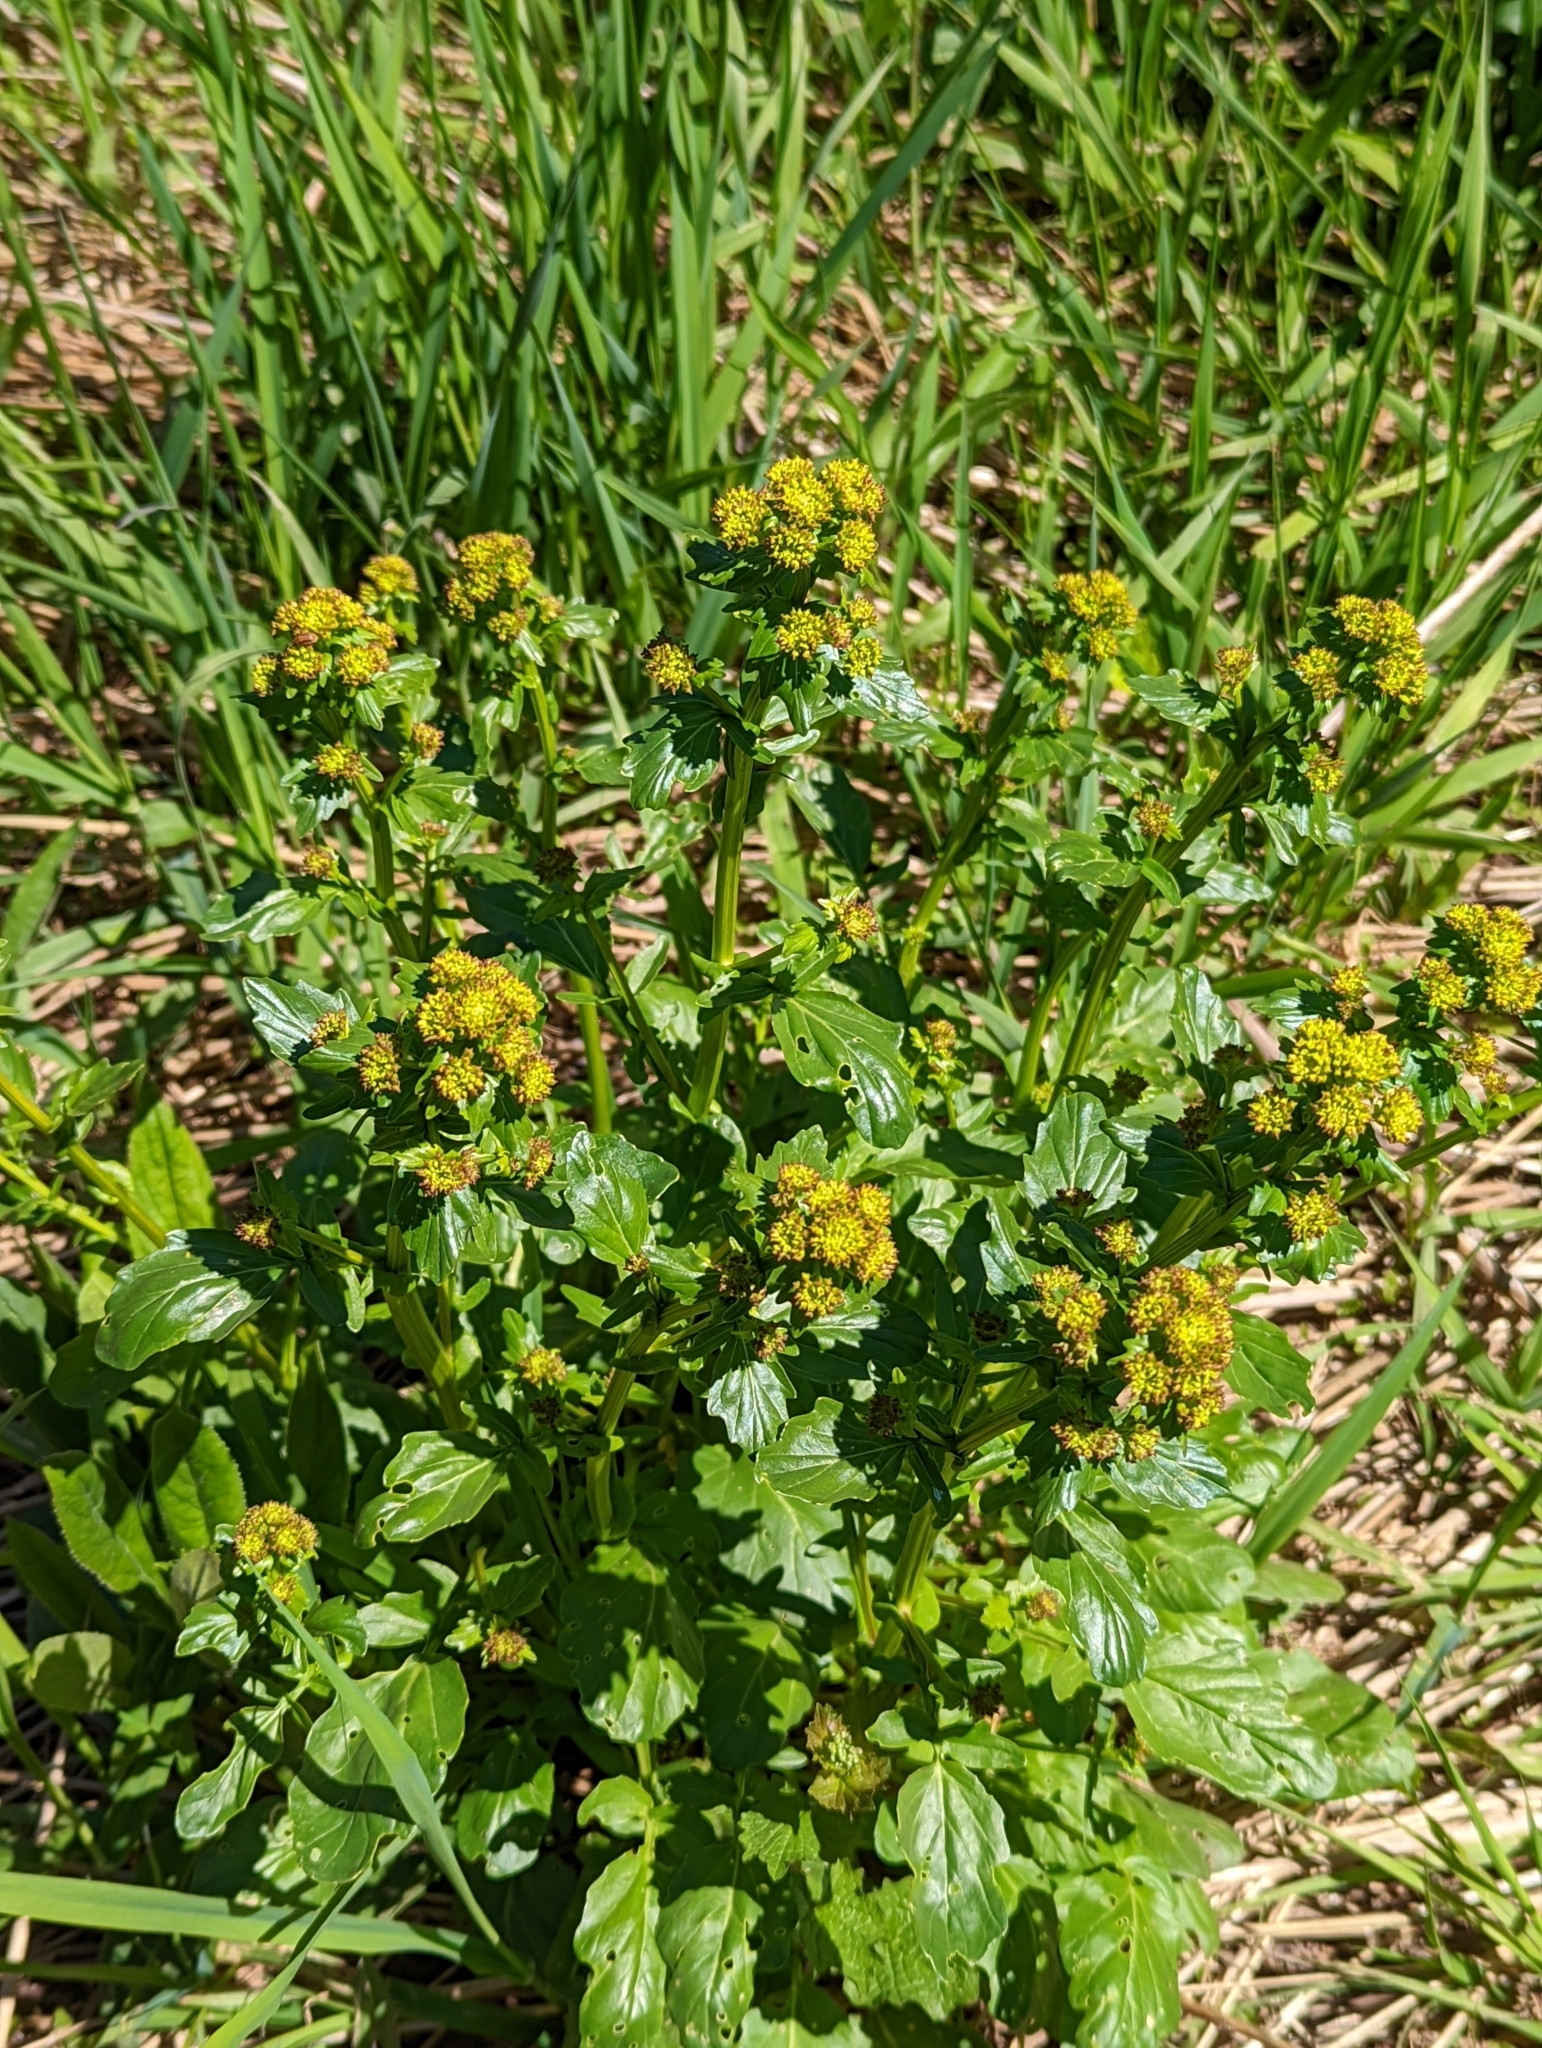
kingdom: Plantae
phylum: Tracheophyta
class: Magnoliopsida
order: Brassicales
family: Brassicaceae
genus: Barbarea
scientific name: Barbarea vulgaris
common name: Cressy-greens
